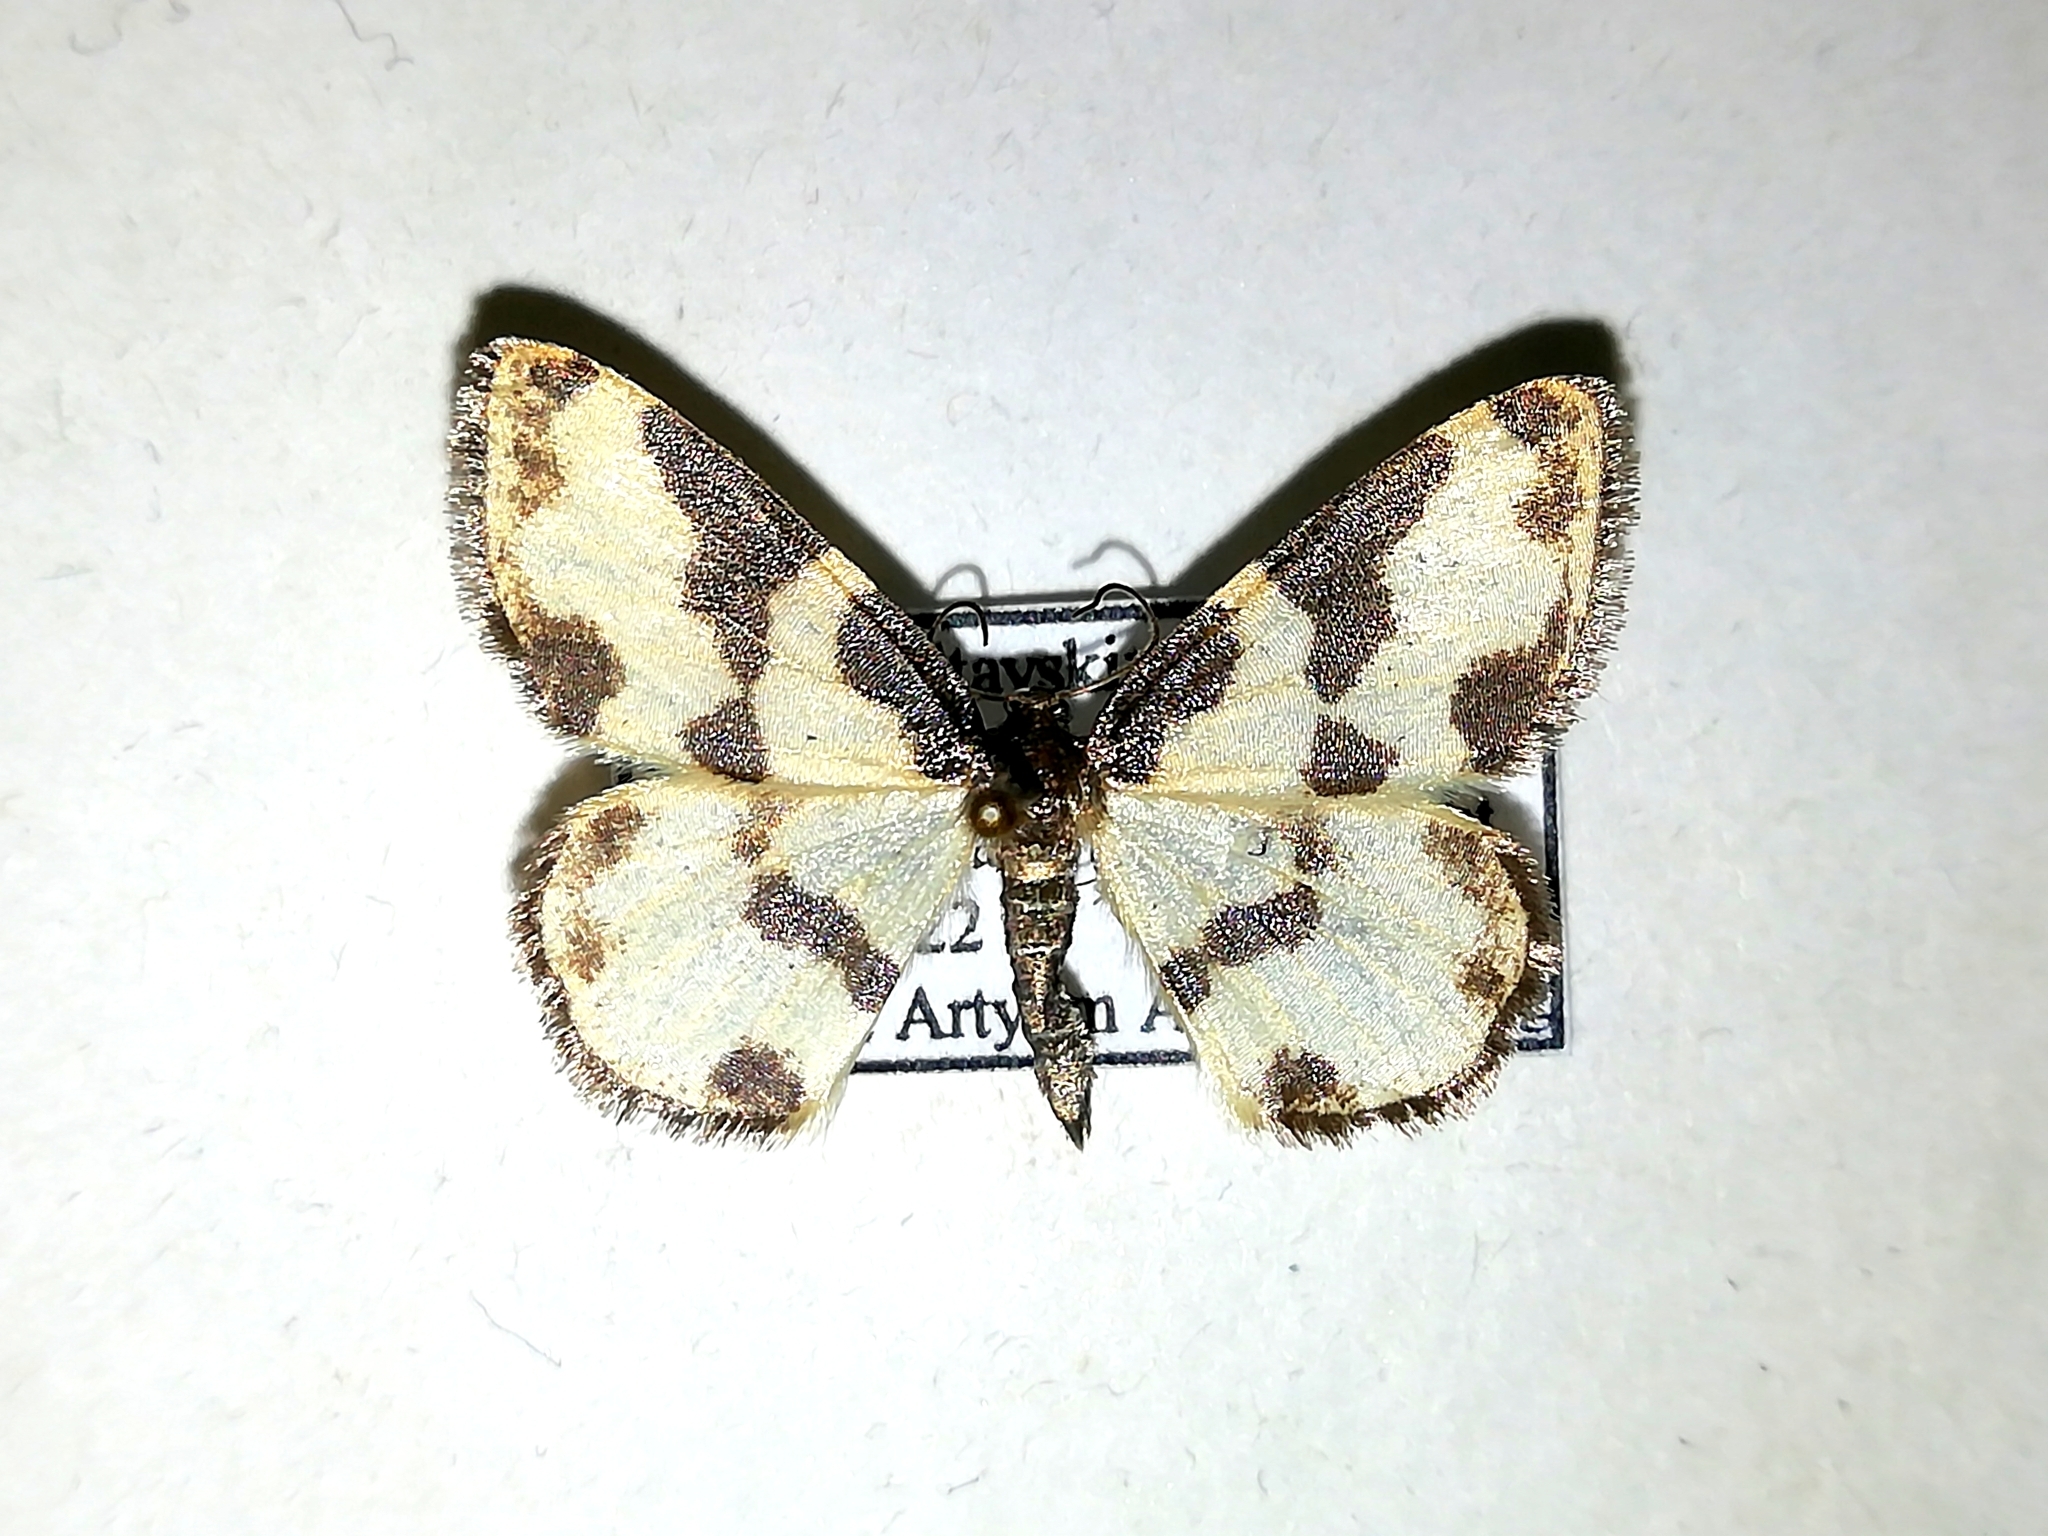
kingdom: Animalia
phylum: Arthropoda
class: Insecta
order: Lepidoptera
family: Geometridae
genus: Lomaspilis
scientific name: Lomaspilis marginata
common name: Clouded border
